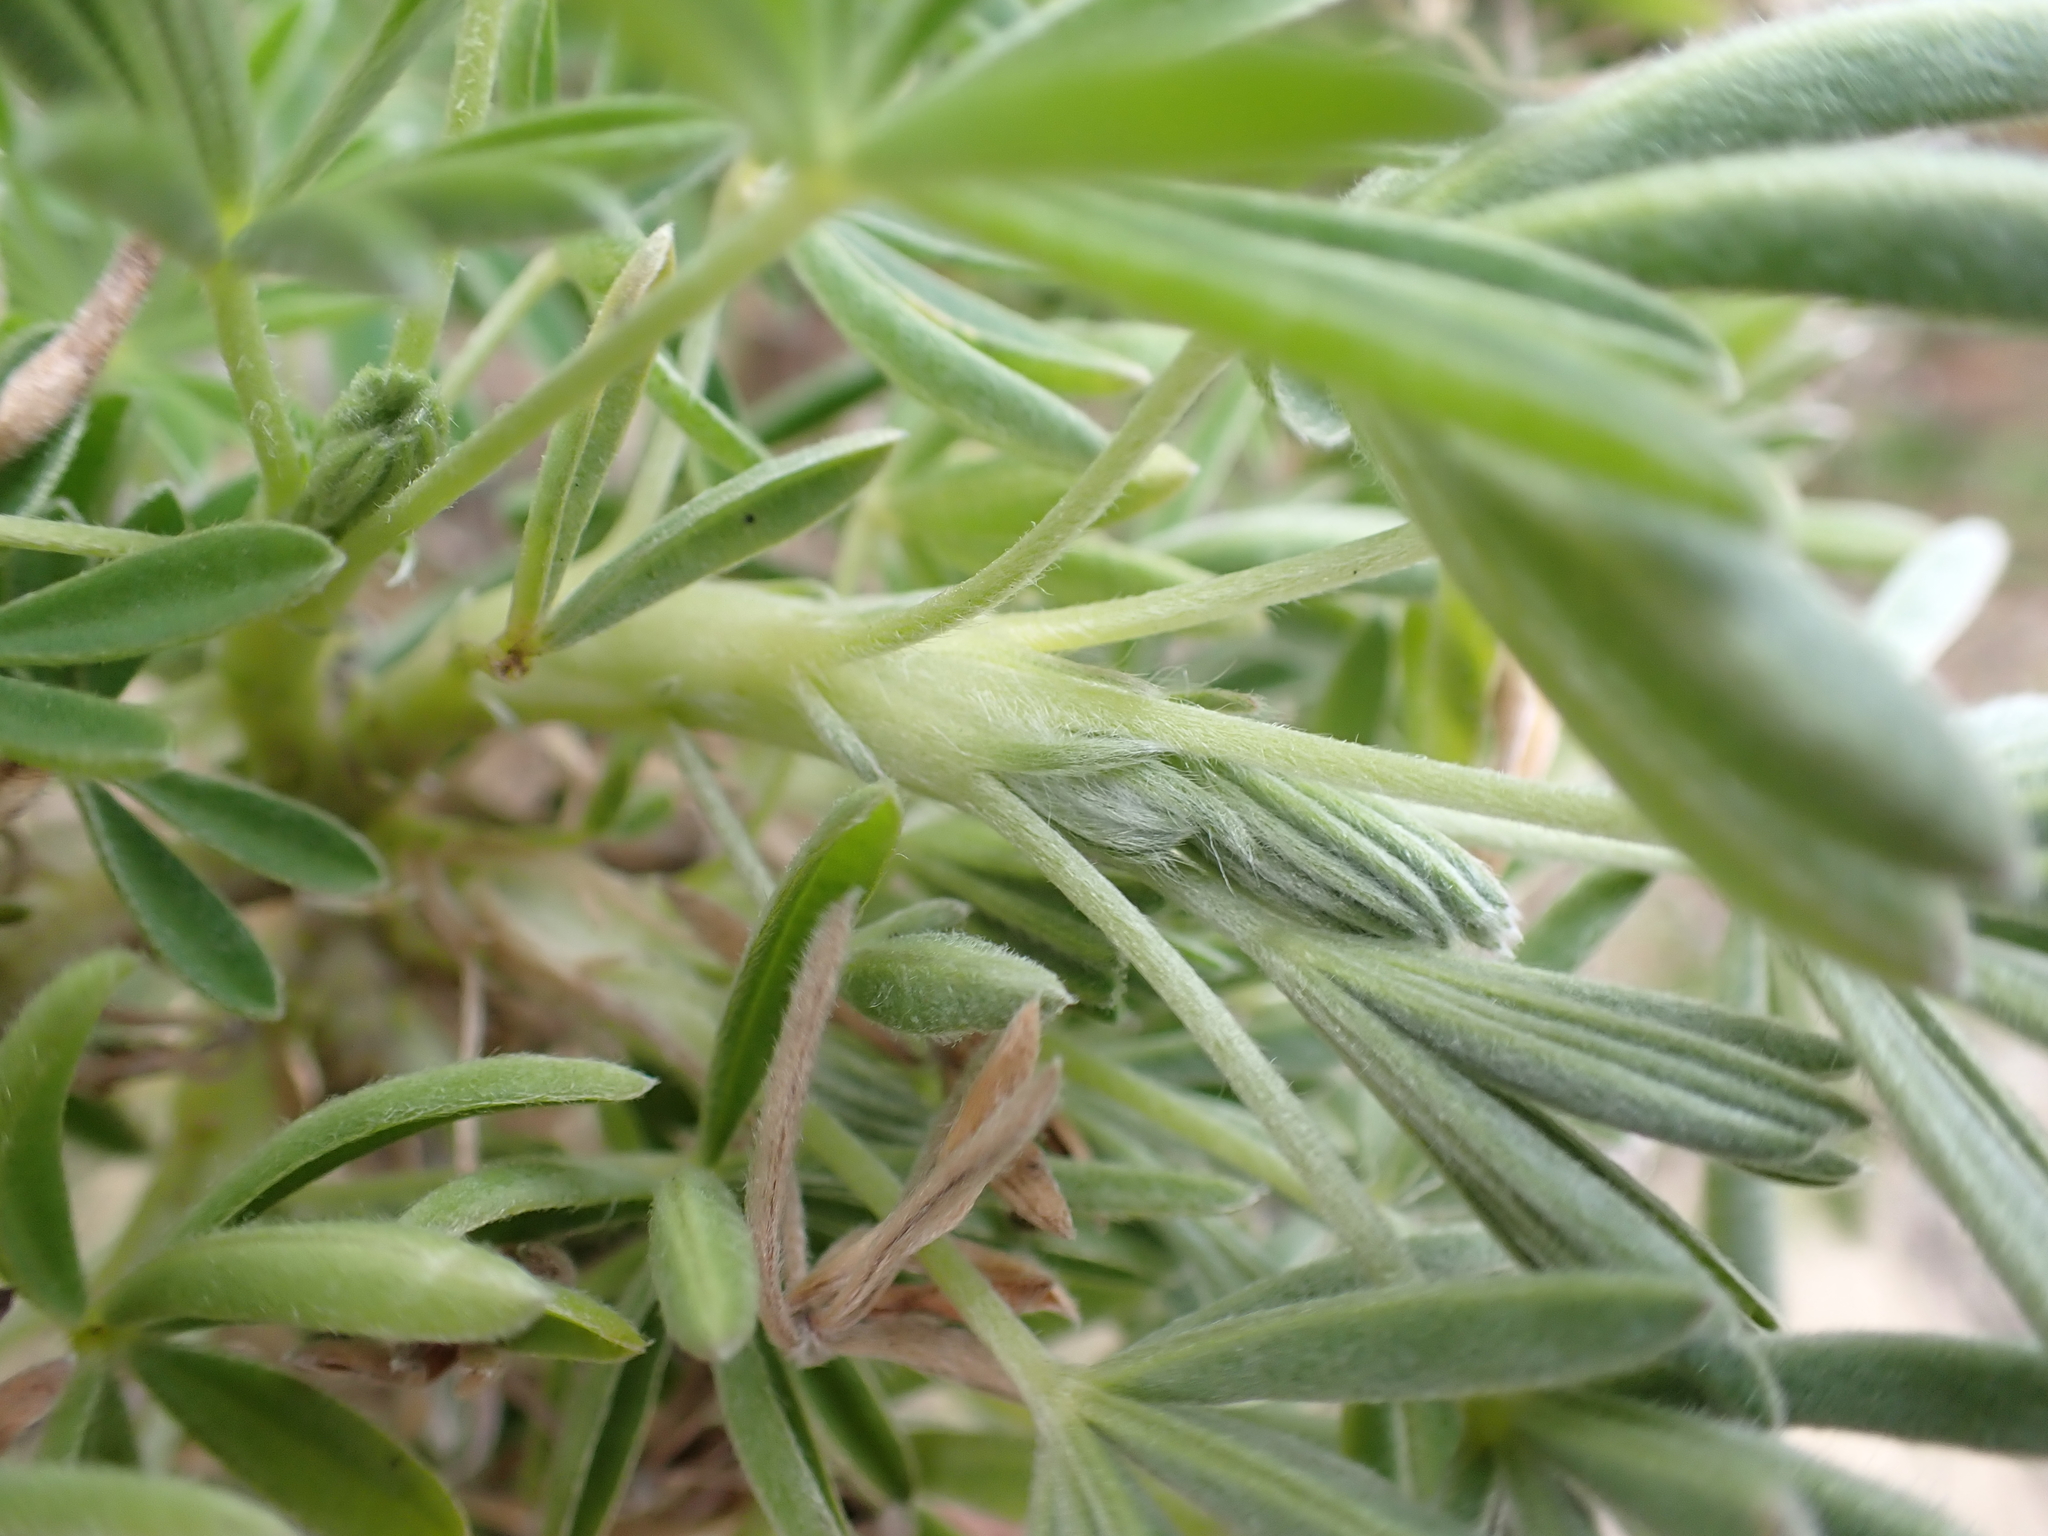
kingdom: Plantae
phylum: Tracheophyta
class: Magnoliopsida
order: Fabales
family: Fabaceae
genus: Lupinus
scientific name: Lupinus arboreus
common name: Yellow bush lupine
